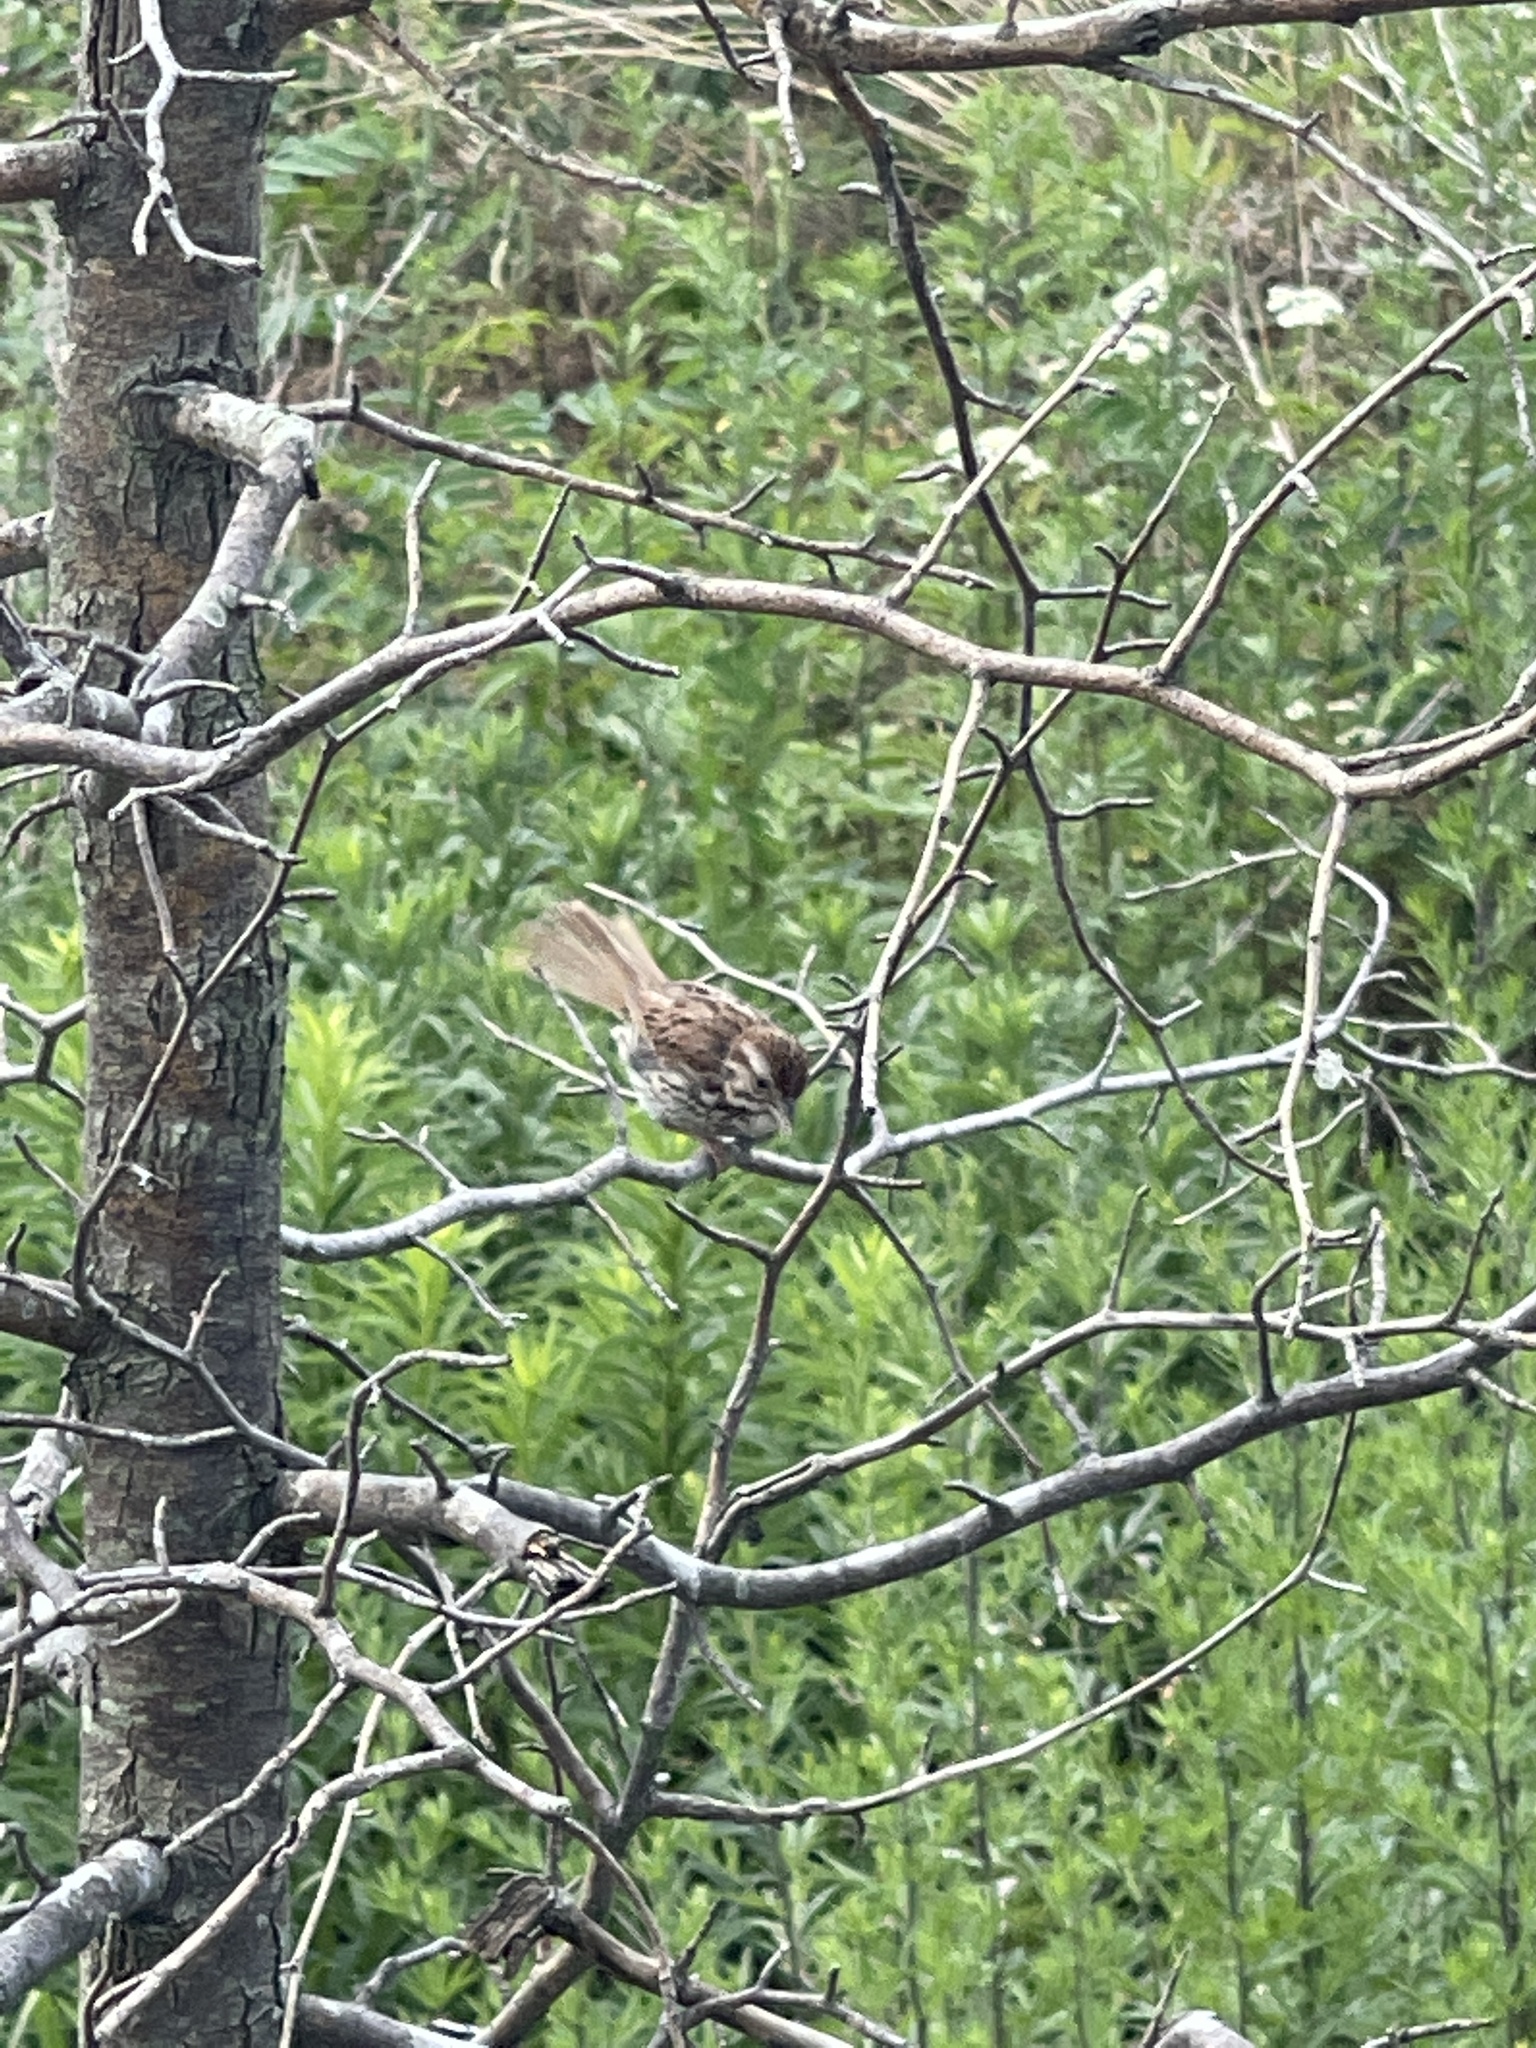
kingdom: Animalia
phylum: Chordata
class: Aves
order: Passeriformes
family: Passerellidae
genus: Melospiza
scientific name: Melospiza melodia
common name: Song sparrow
